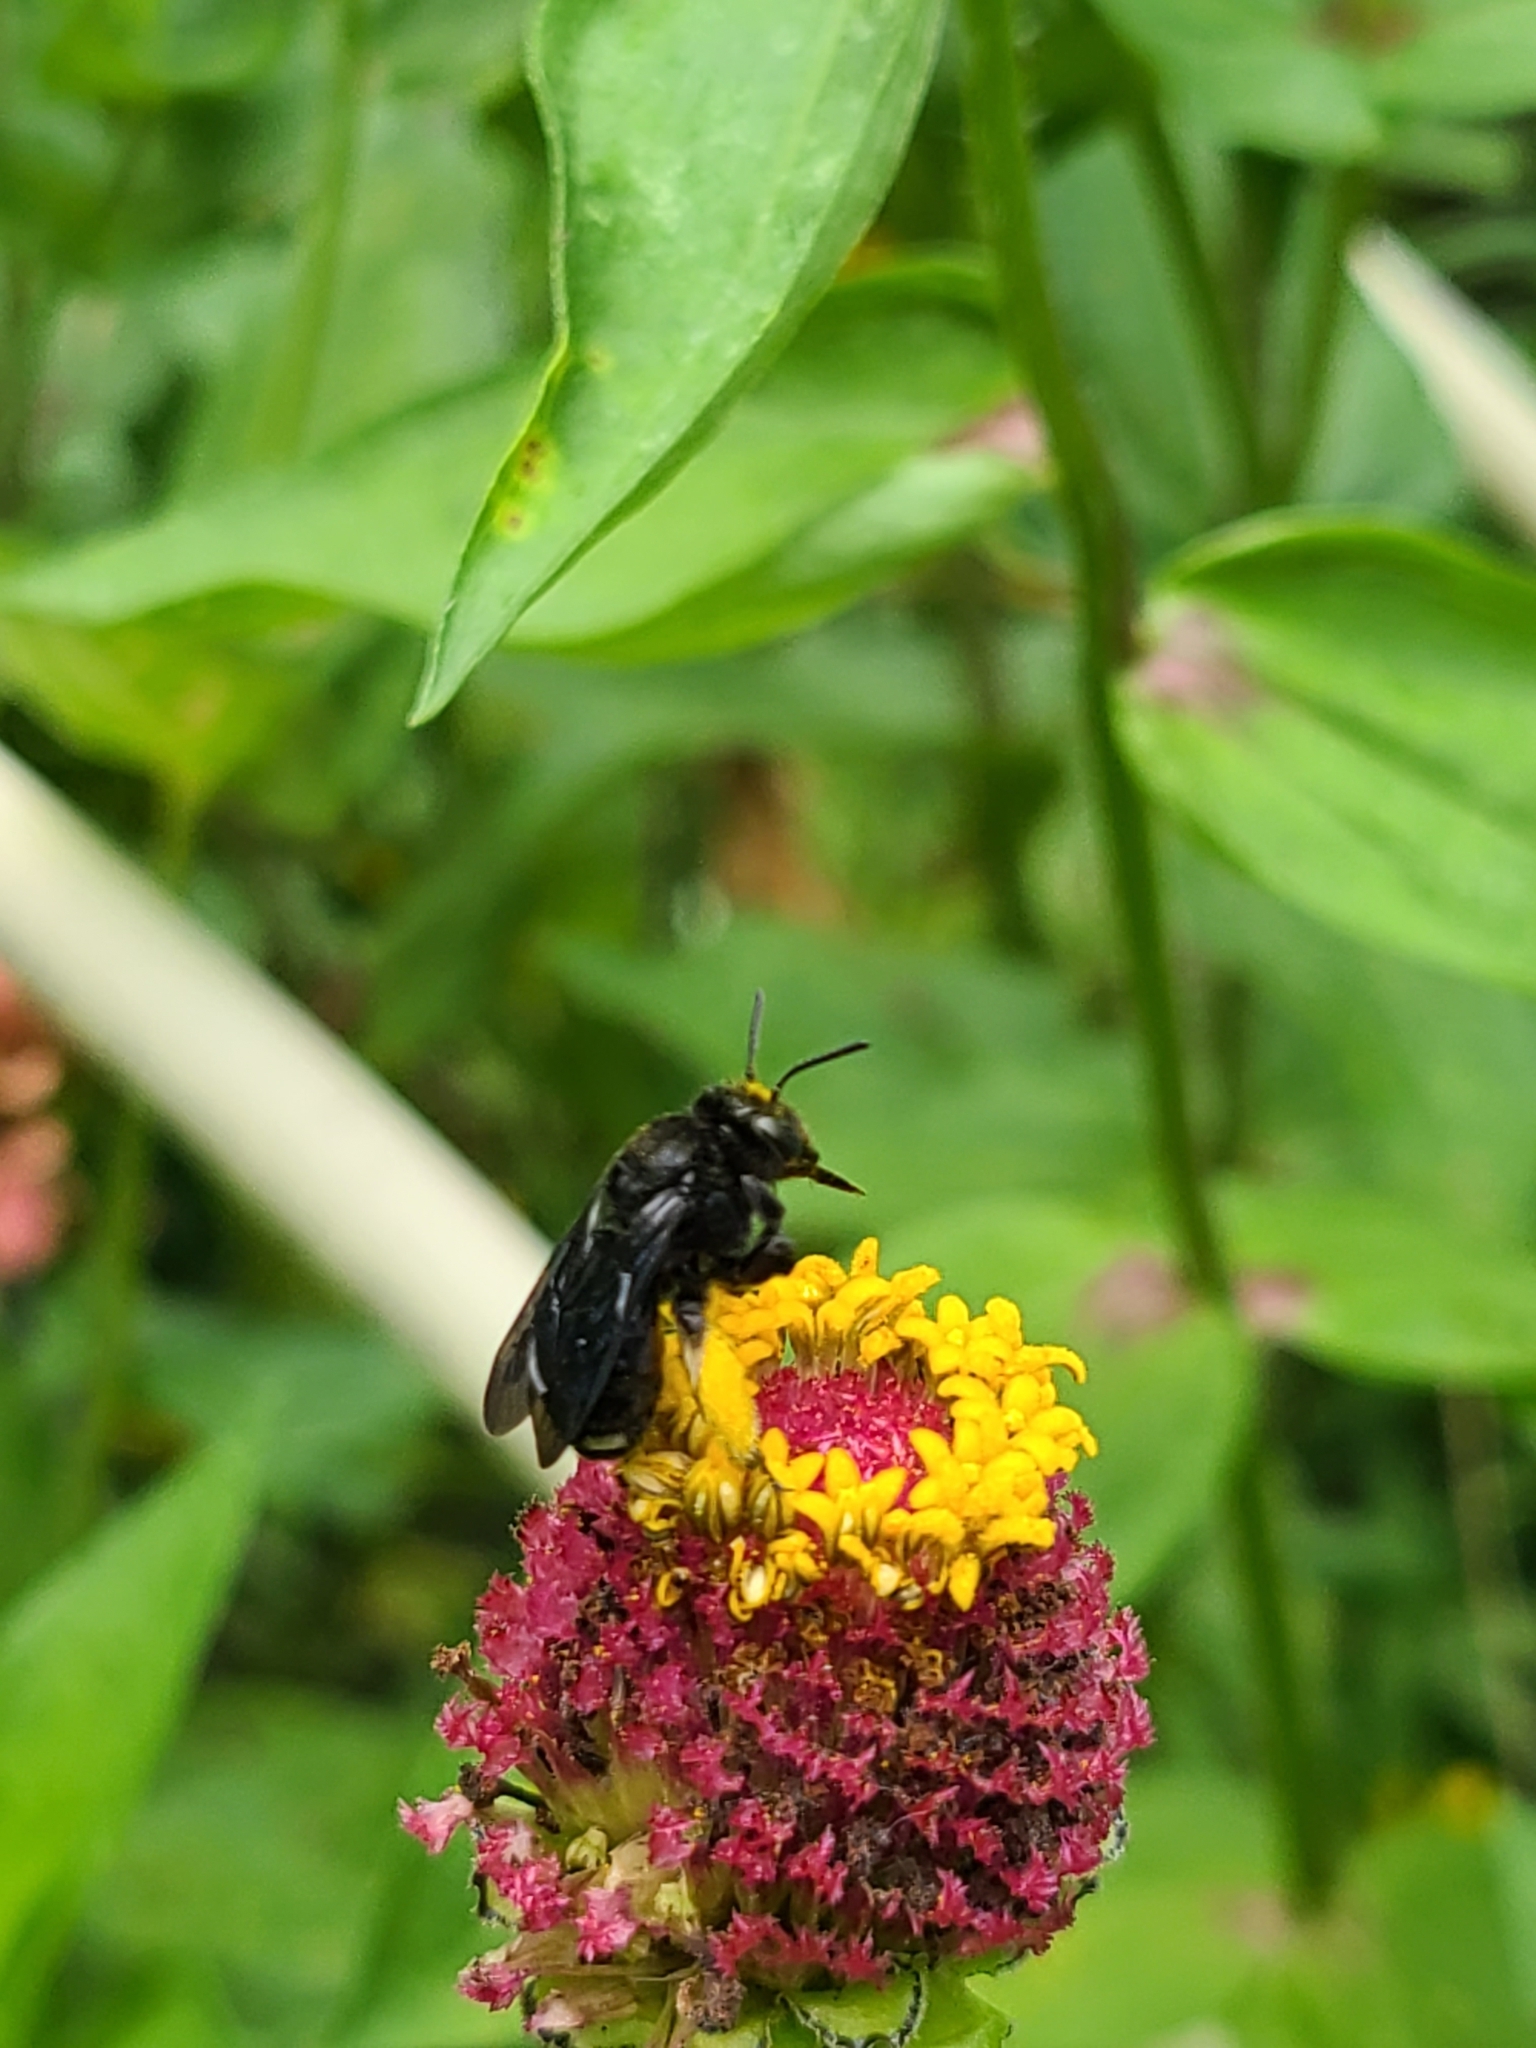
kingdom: Animalia
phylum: Arthropoda
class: Insecta
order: Hymenoptera
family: Apidae
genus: Melissodes
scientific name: Melissodes bimaculatus
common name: Two-spotted long-horned bee
